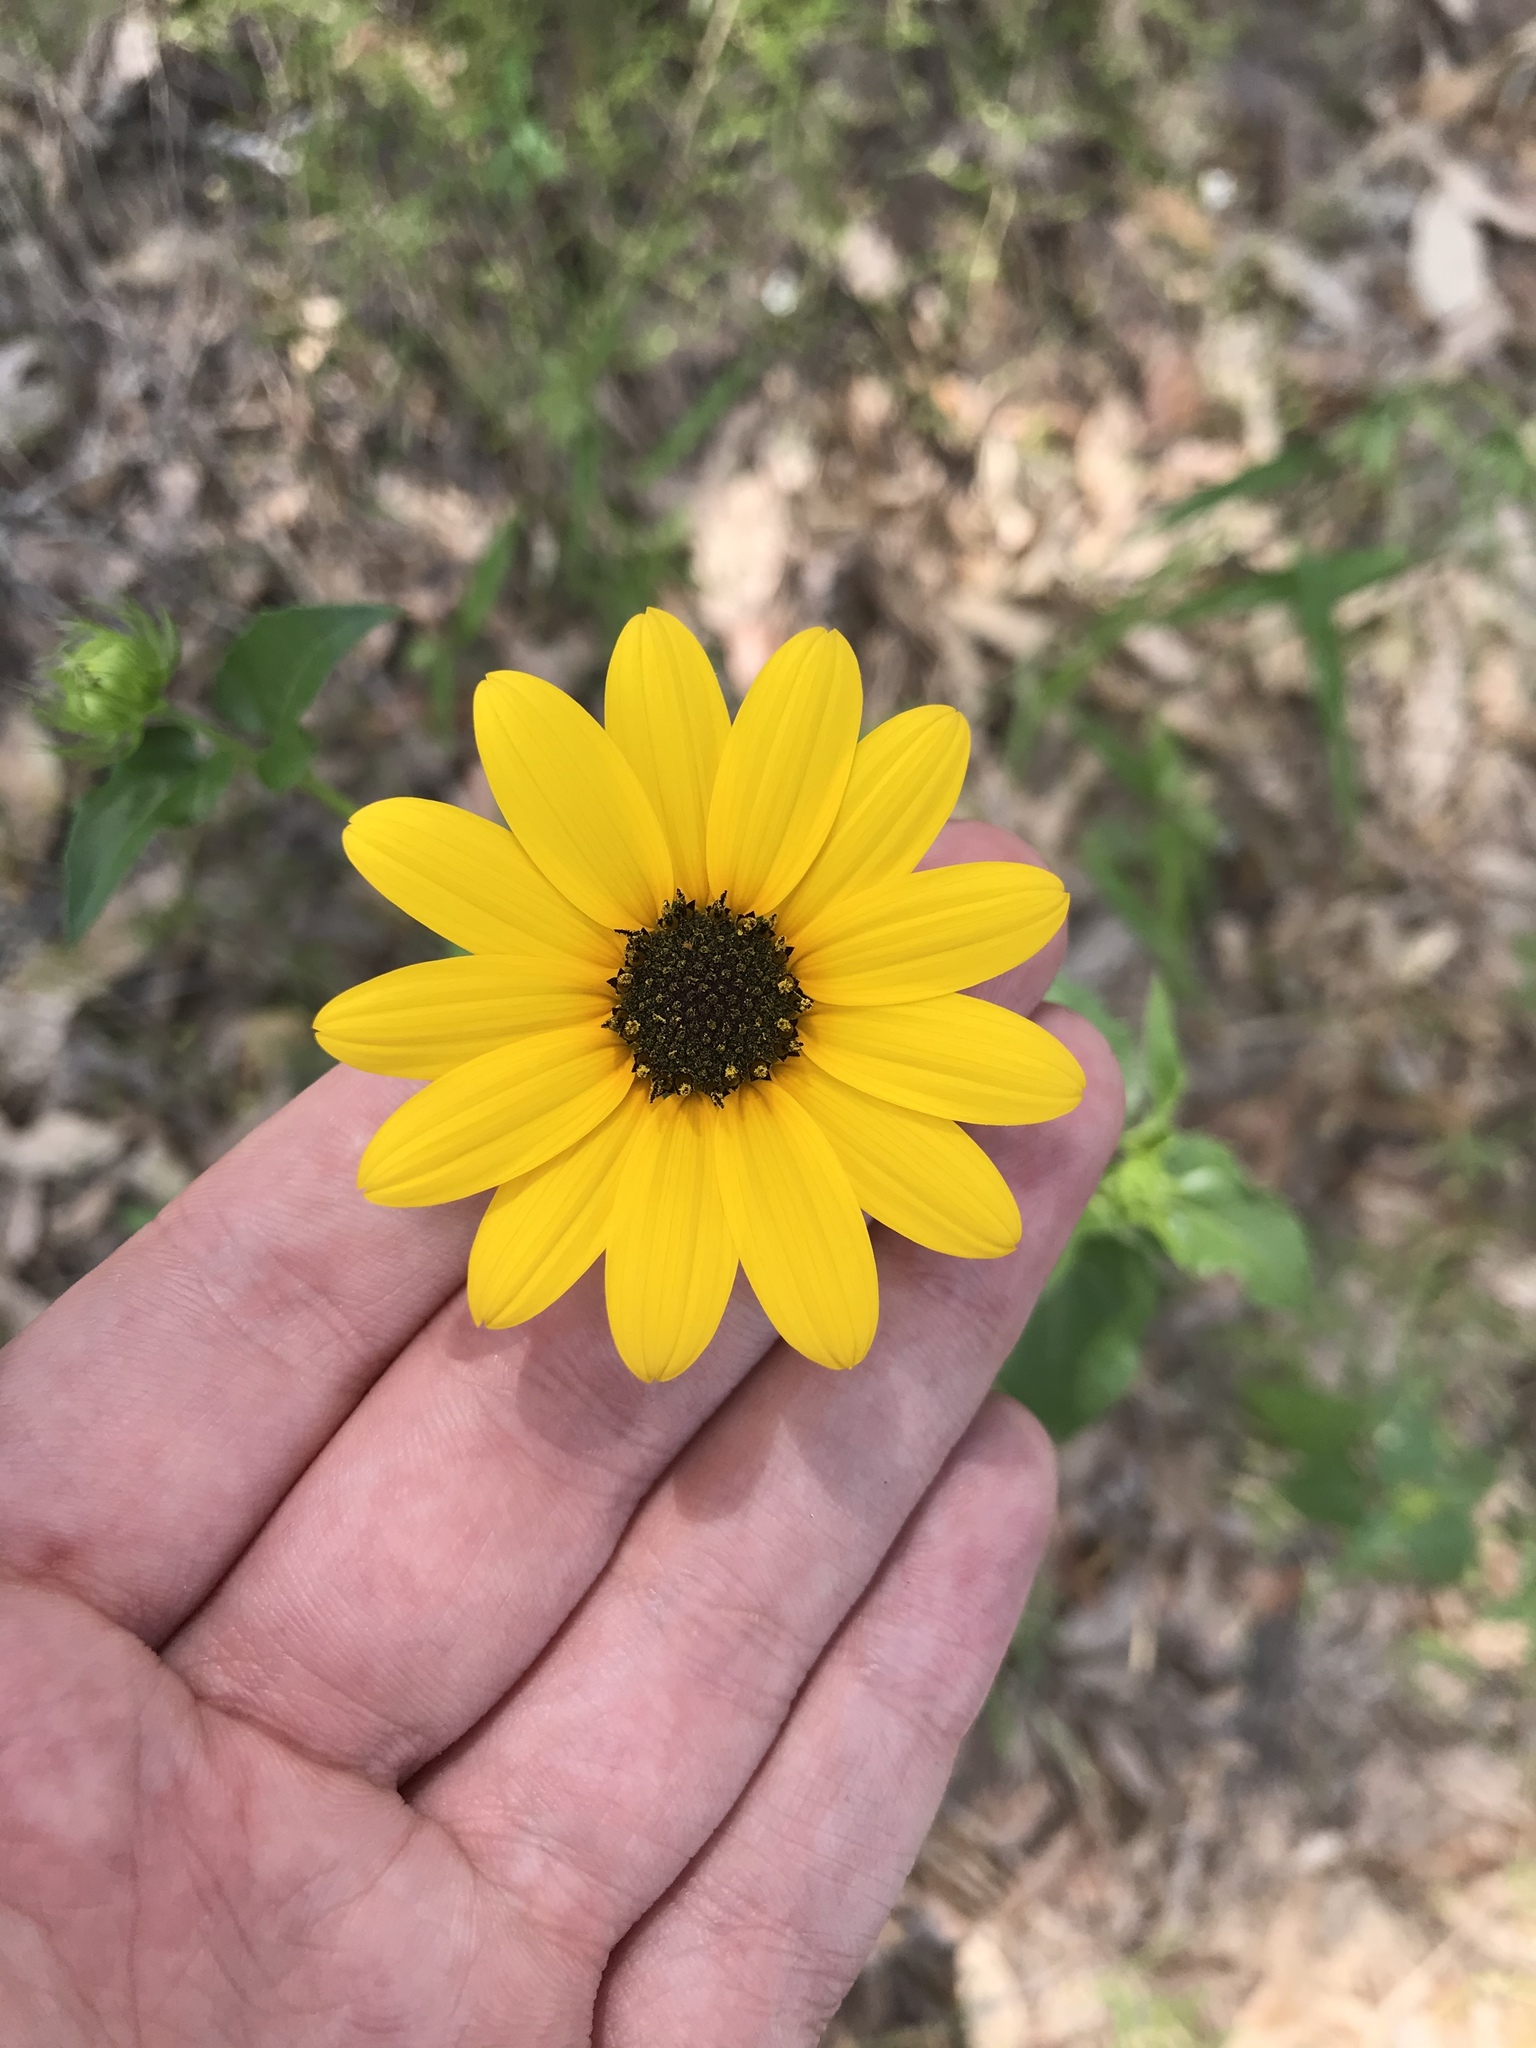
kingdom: Plantae
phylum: Tracheophyta
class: Magnoliopsida
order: Asterales
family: Asteraceae
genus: Helianthus
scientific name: Helianthus debilis
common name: Weak sunflower
